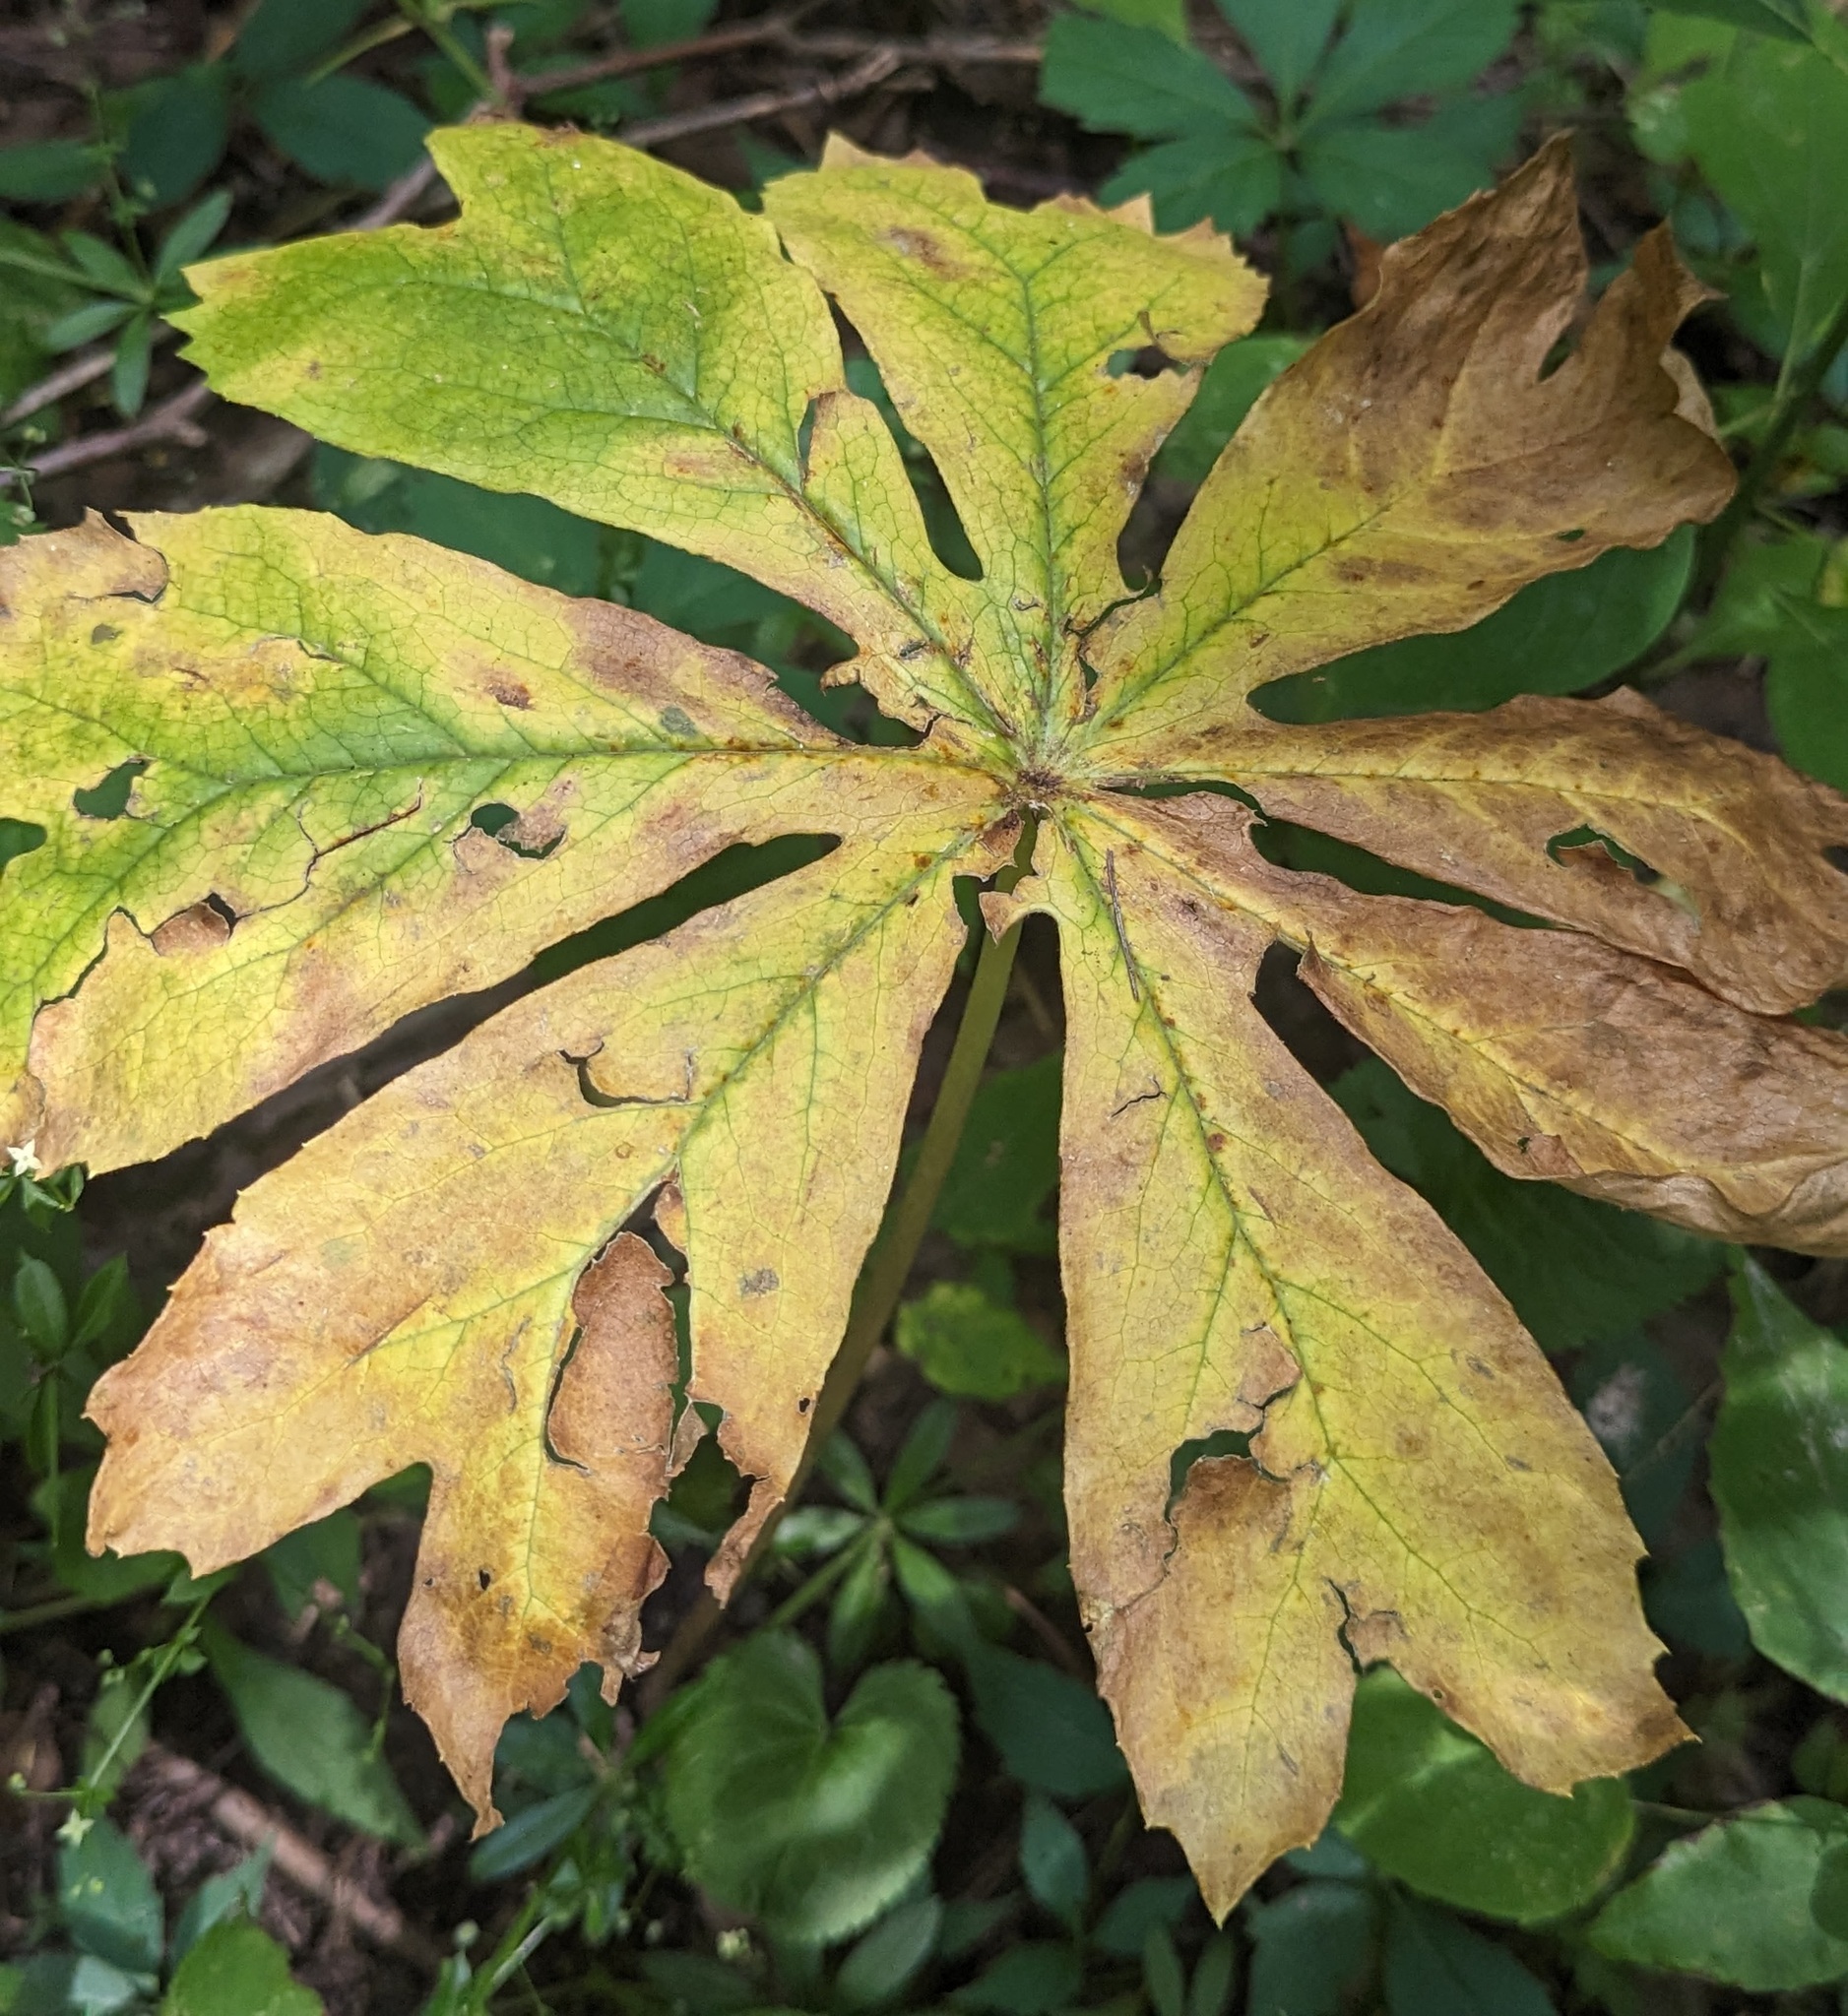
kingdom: Plantae
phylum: Tracheophyta
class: Magnoliopsida
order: Ranunculales
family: Berberidaceae
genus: Podophyllum
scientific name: Podophyllum peltatum
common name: Wild mandrake
